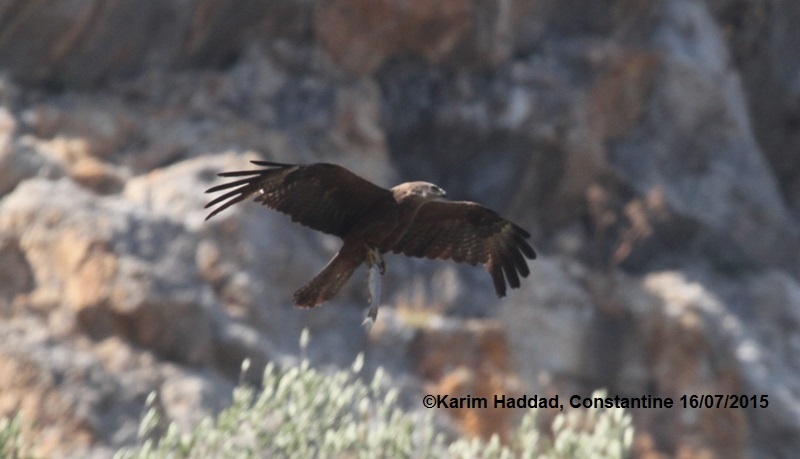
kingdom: Animalia
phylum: Chordata
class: Aves
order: Accipitriformes
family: Accipitridae
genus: Milvus
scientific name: Milvus migrans
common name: Black kite
